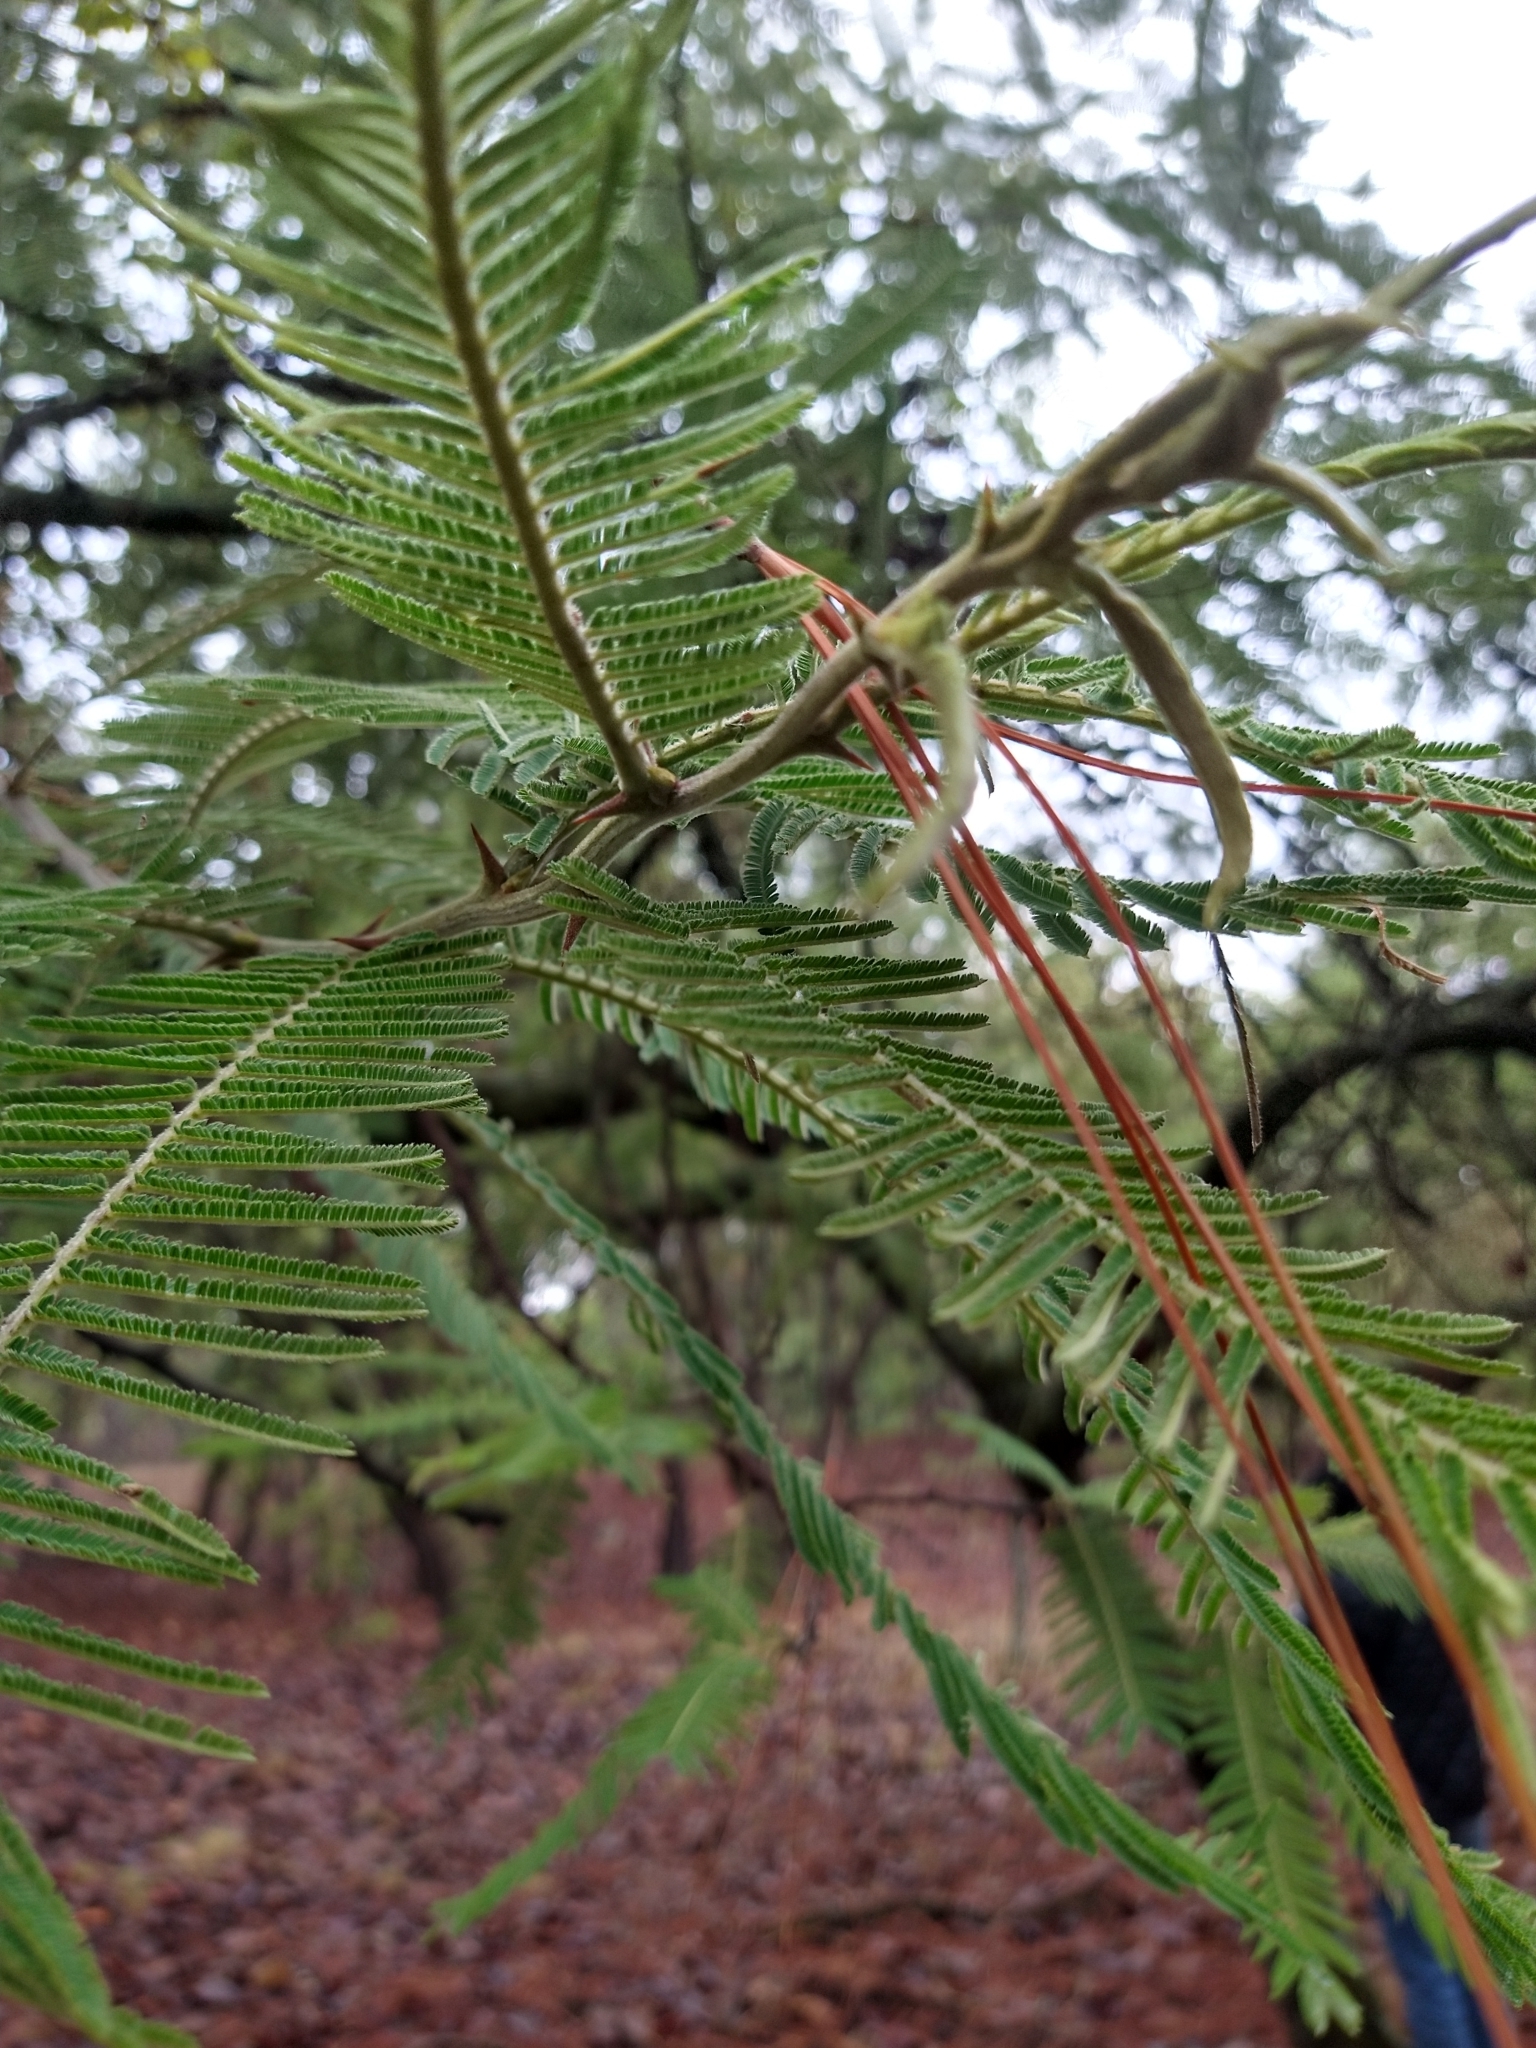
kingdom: Plantae
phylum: Tracheophyta
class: Magnoliopsida
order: Fabales
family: Fabaceae
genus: Vachellia
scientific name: Vachellia pennatula
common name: Fern-leaf acacia
